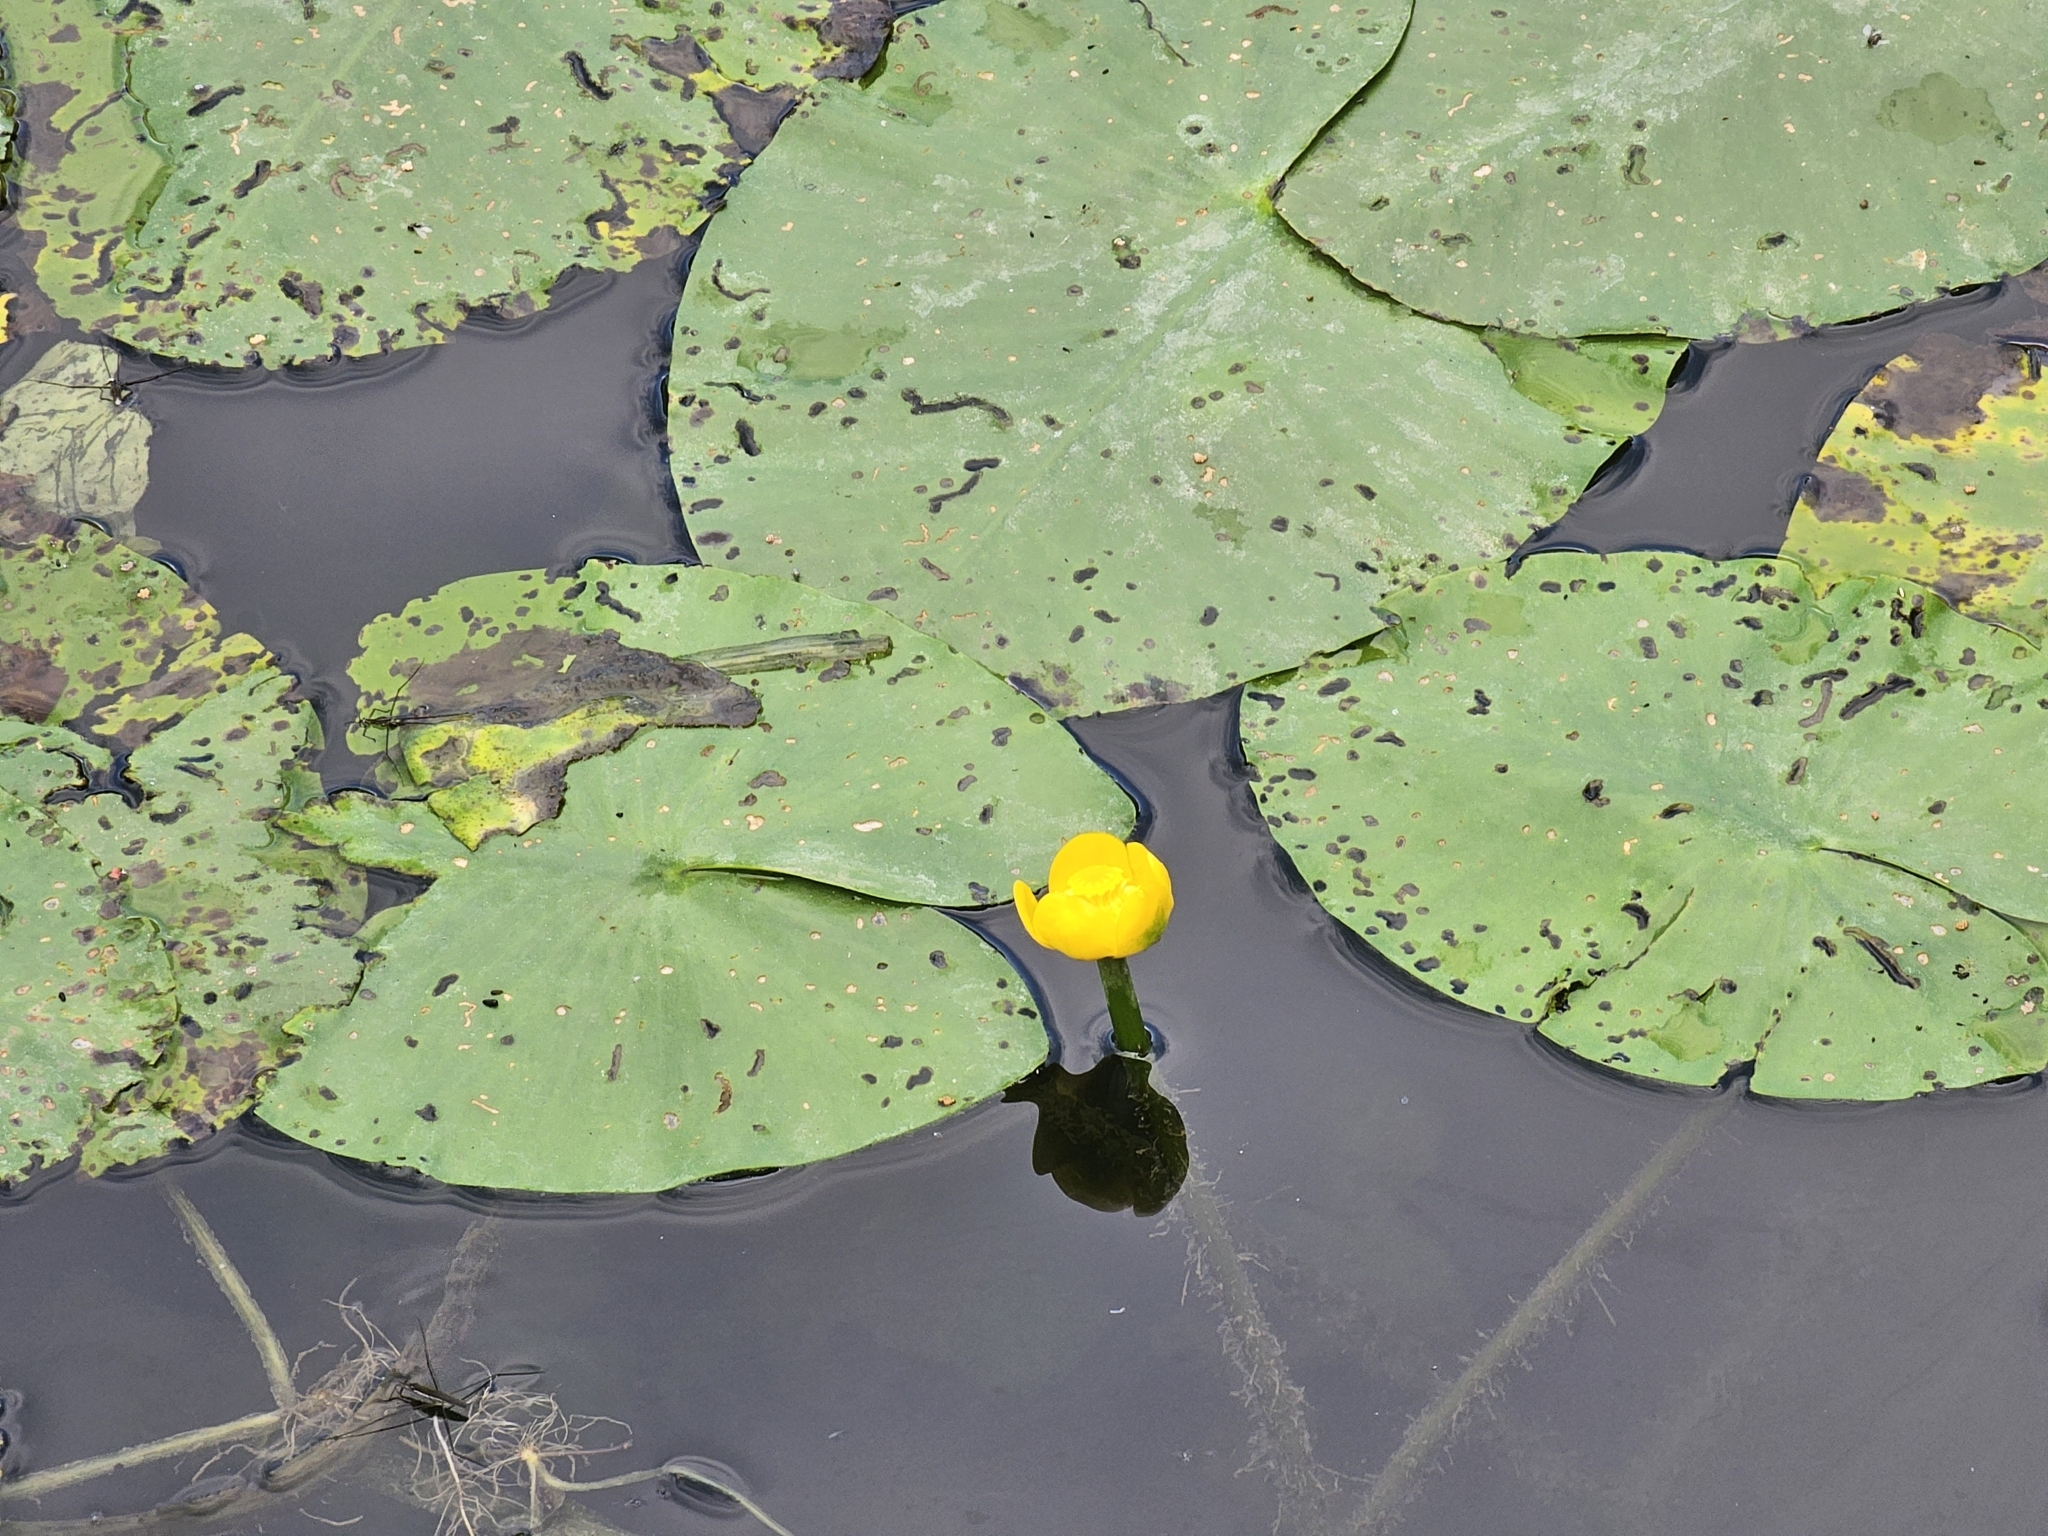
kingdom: Plantae
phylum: Tracheophyta
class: Magnoliopsida
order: Nymphaeales
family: Nymphaeaceae
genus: Nuphar
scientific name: Nuphar lutea
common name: Yellow water-lily
